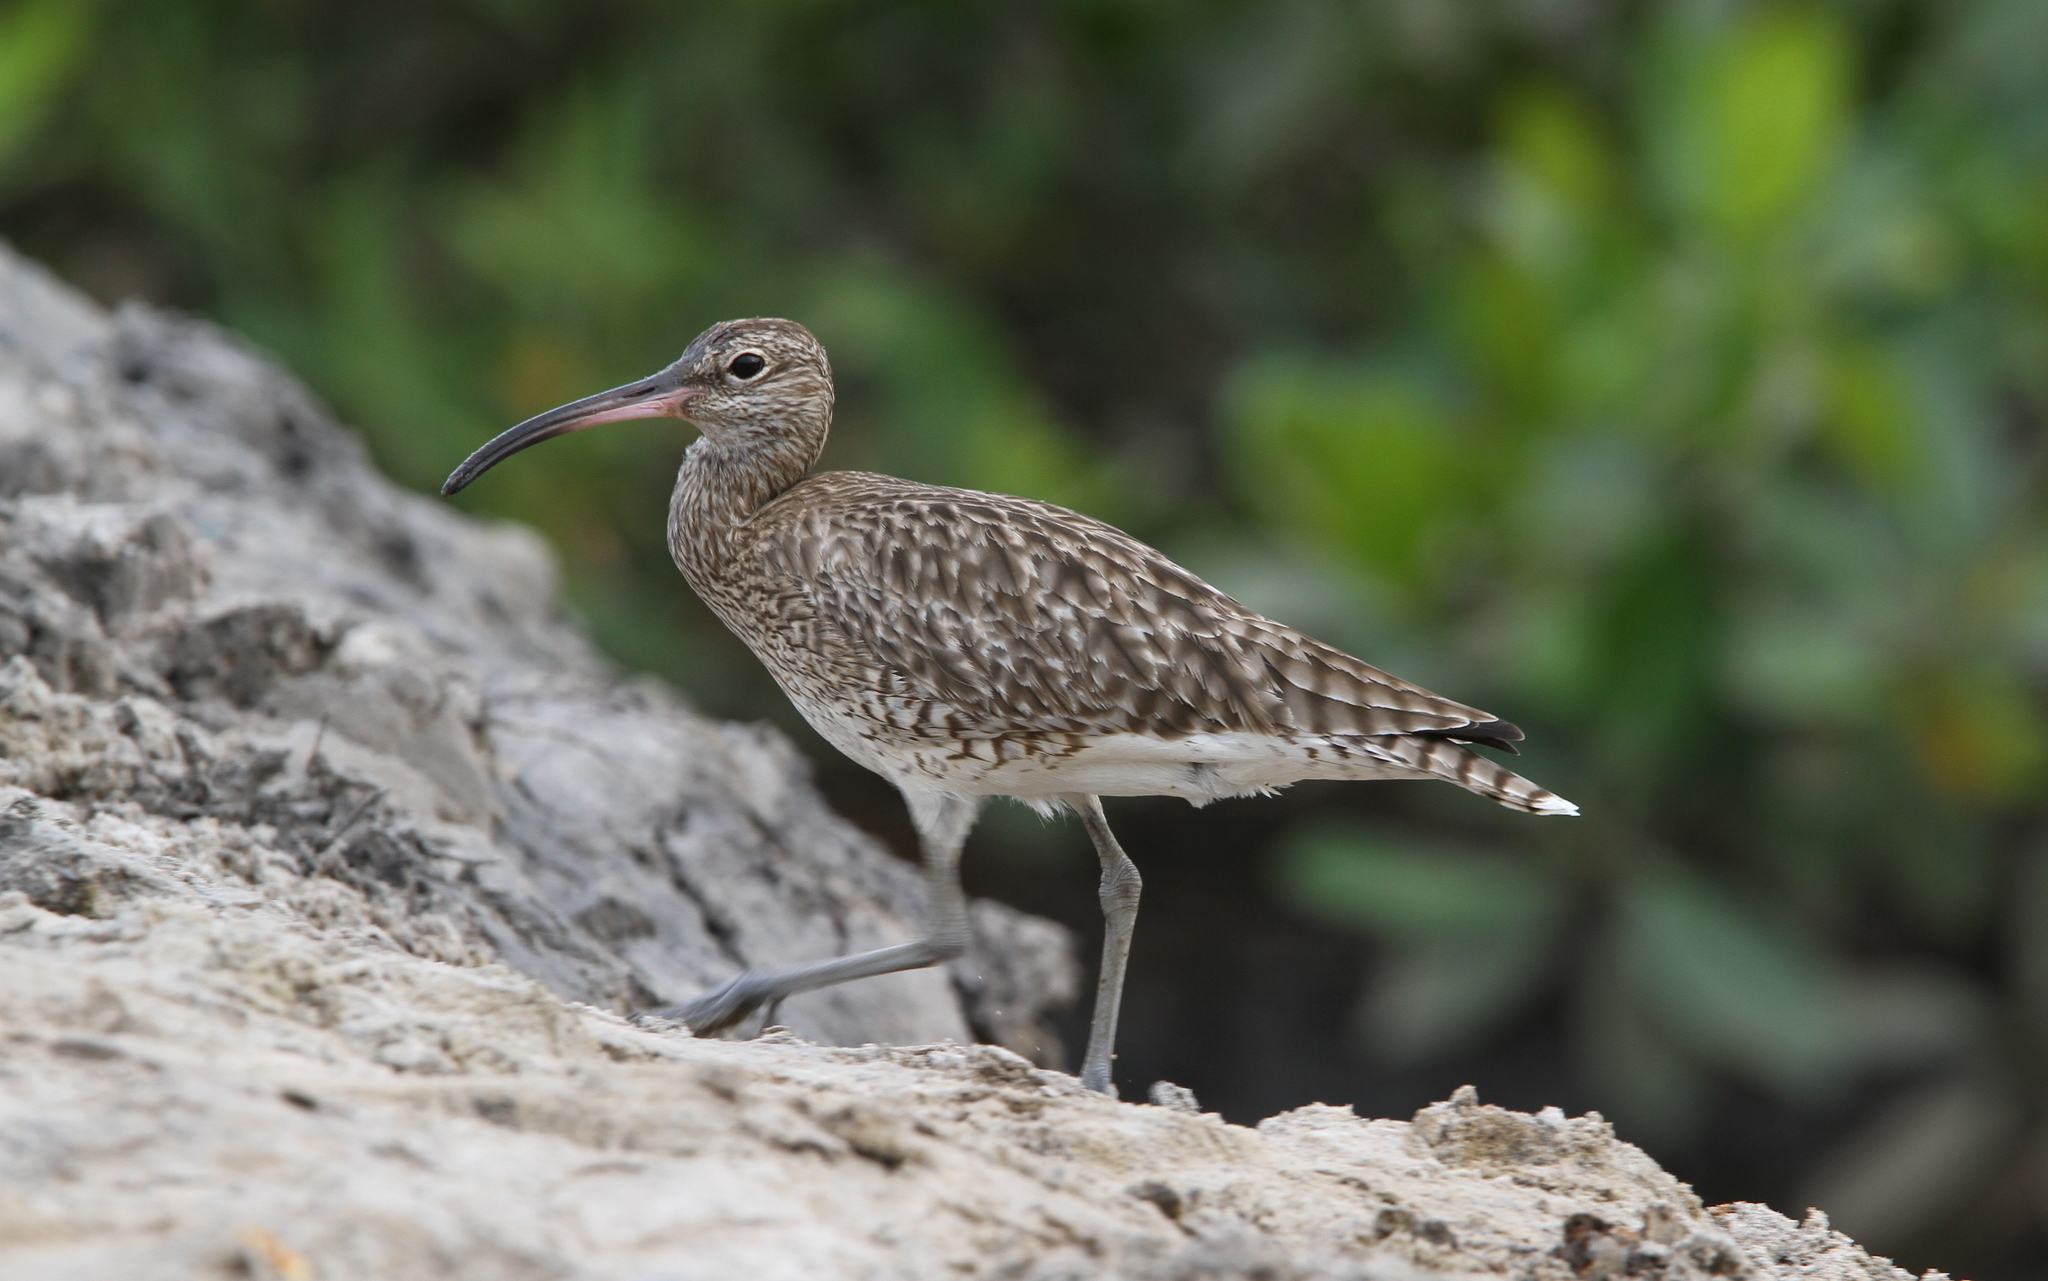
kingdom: Animalia
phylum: Chordata
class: Aves
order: Charadriiformes
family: Scolopacidae
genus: Numenius
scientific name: Numenius phaeopus
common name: Whimbrel
